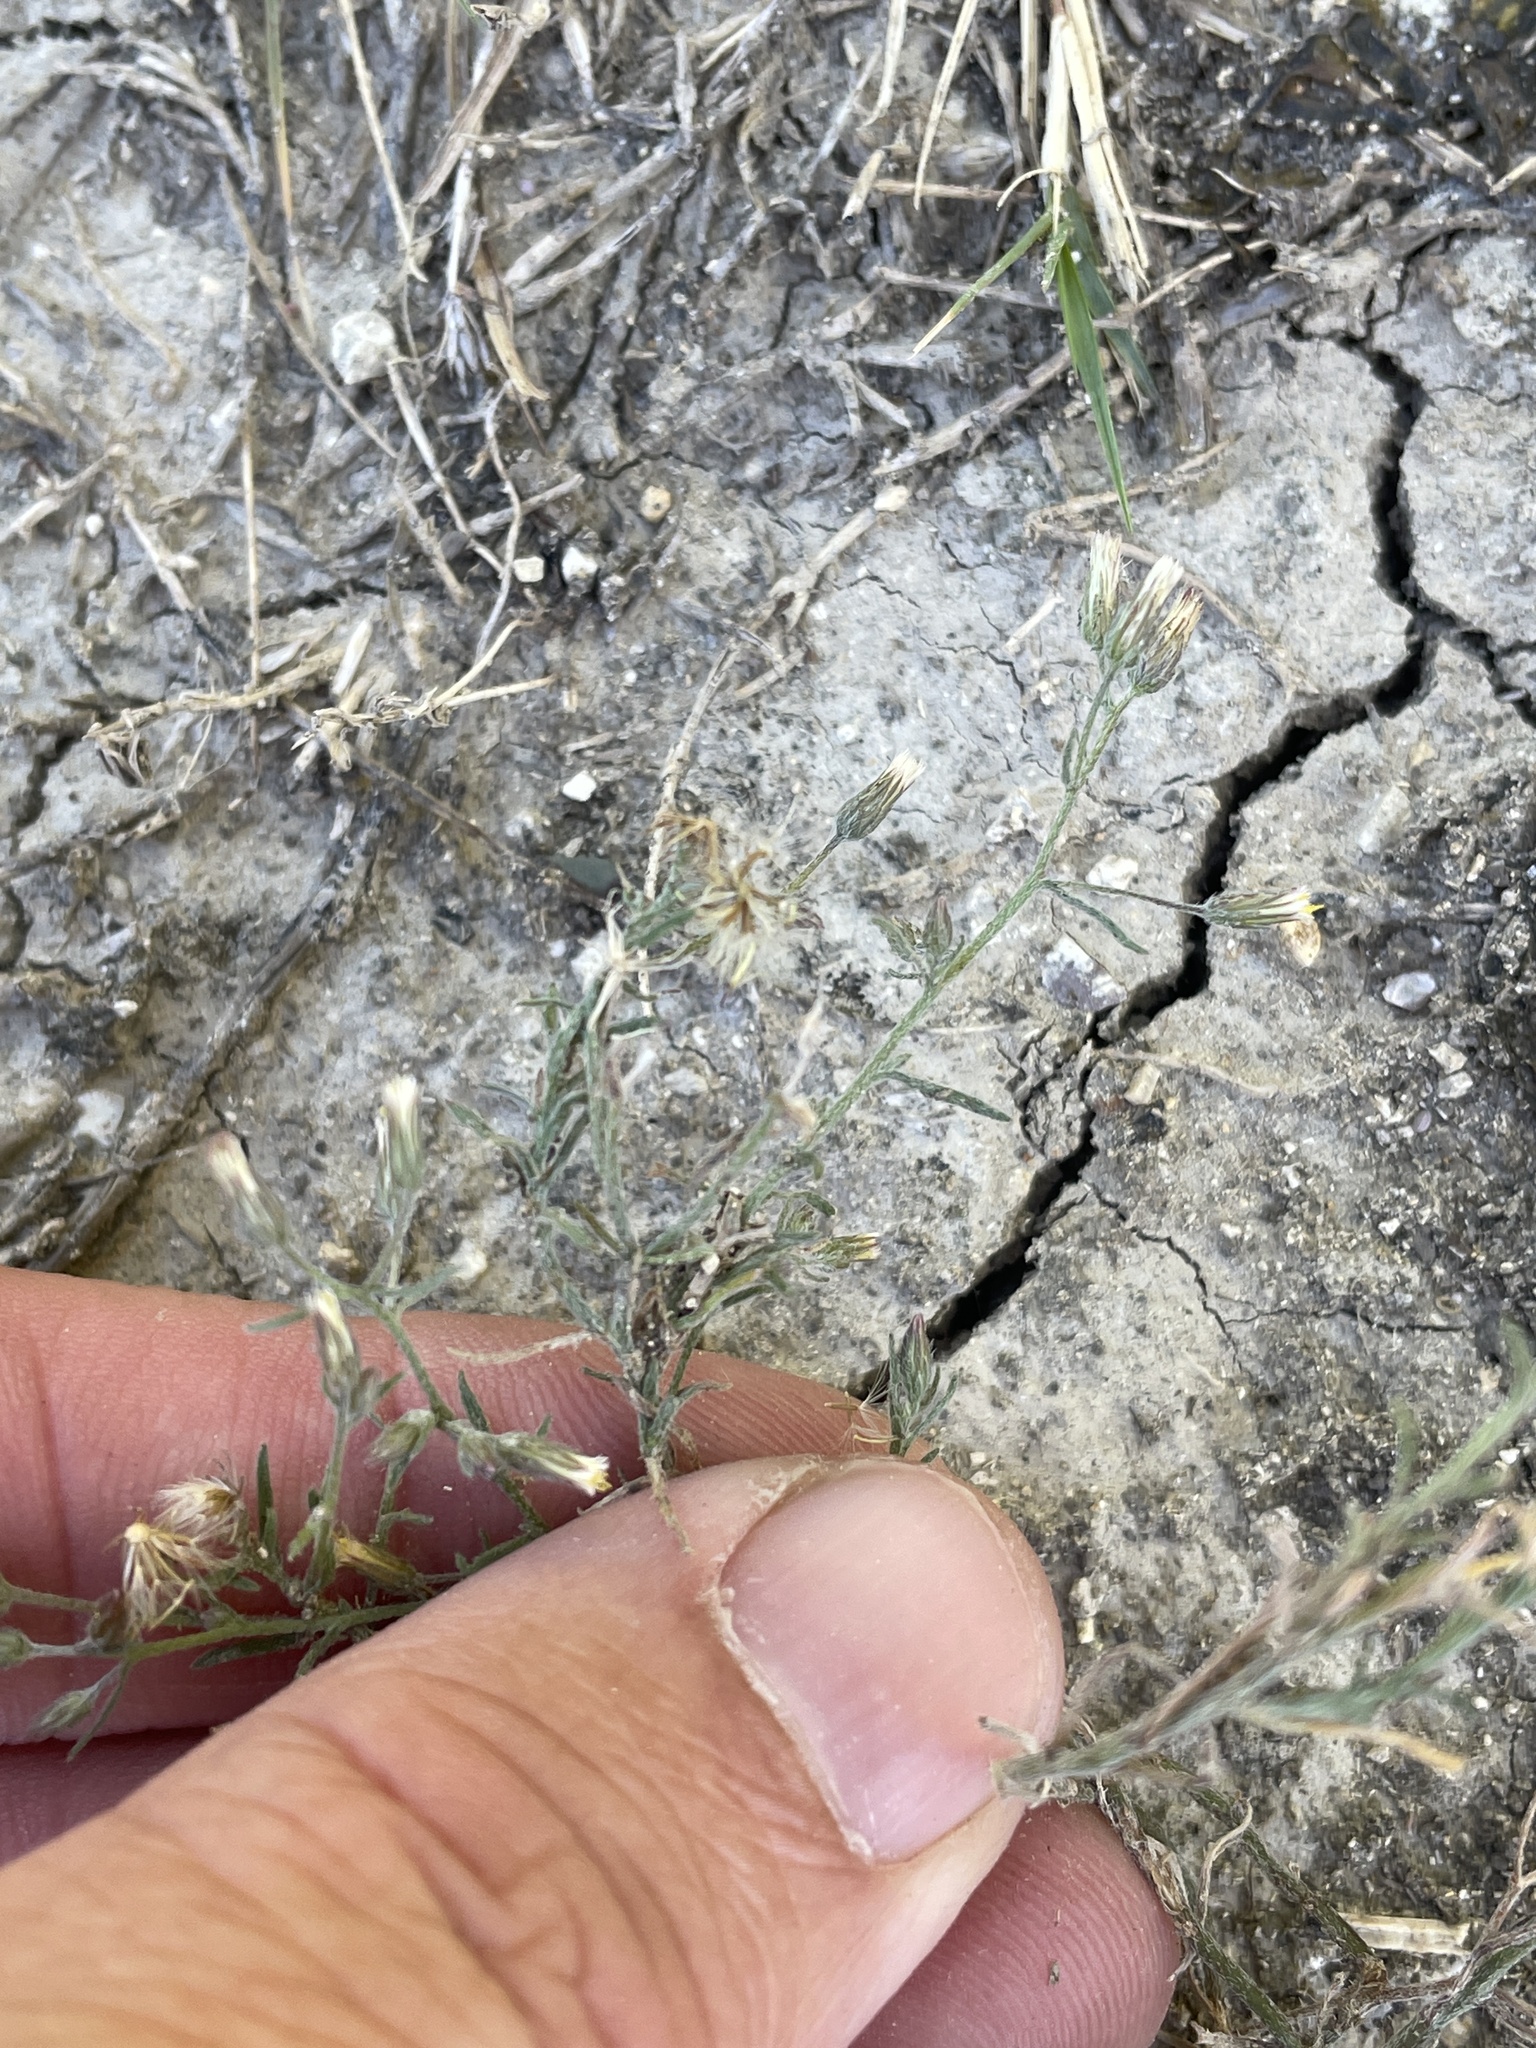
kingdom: Plantae
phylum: Tracheophyta
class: Magnoliopsida
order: Asterales
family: Asteraceae
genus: Erigeron
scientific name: Erigeron divaricatus
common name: Dwarf conyza
